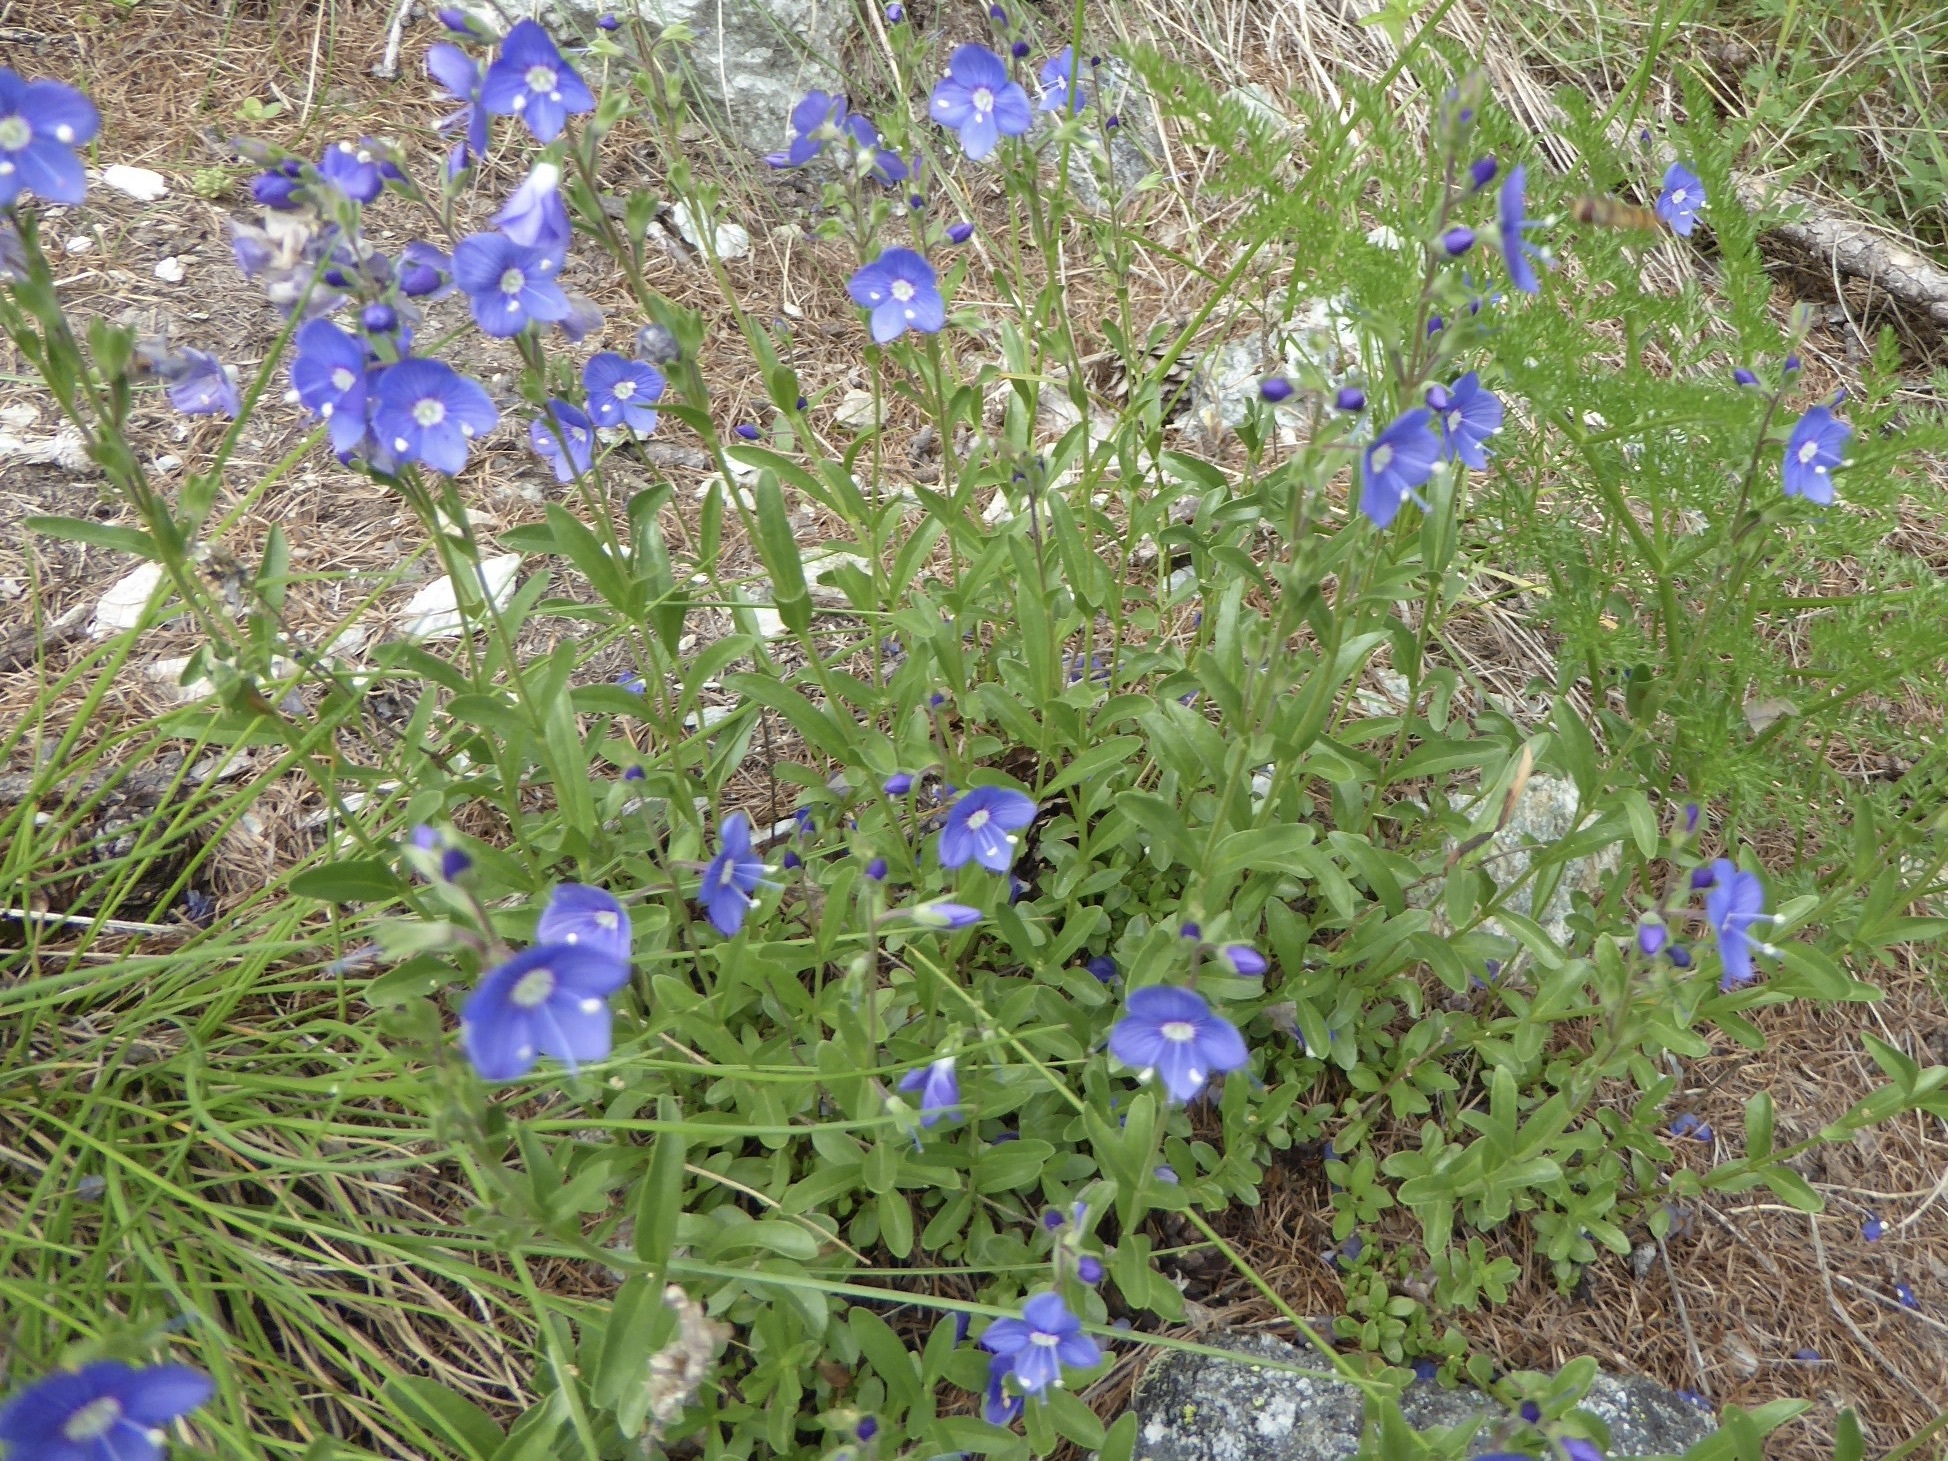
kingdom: Plantae
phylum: Tracheophyta
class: Magnoliopsida
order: Lamiales
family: Plantaginaceae
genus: Veronica
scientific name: Veronica fruticans
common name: Rock speedwell
